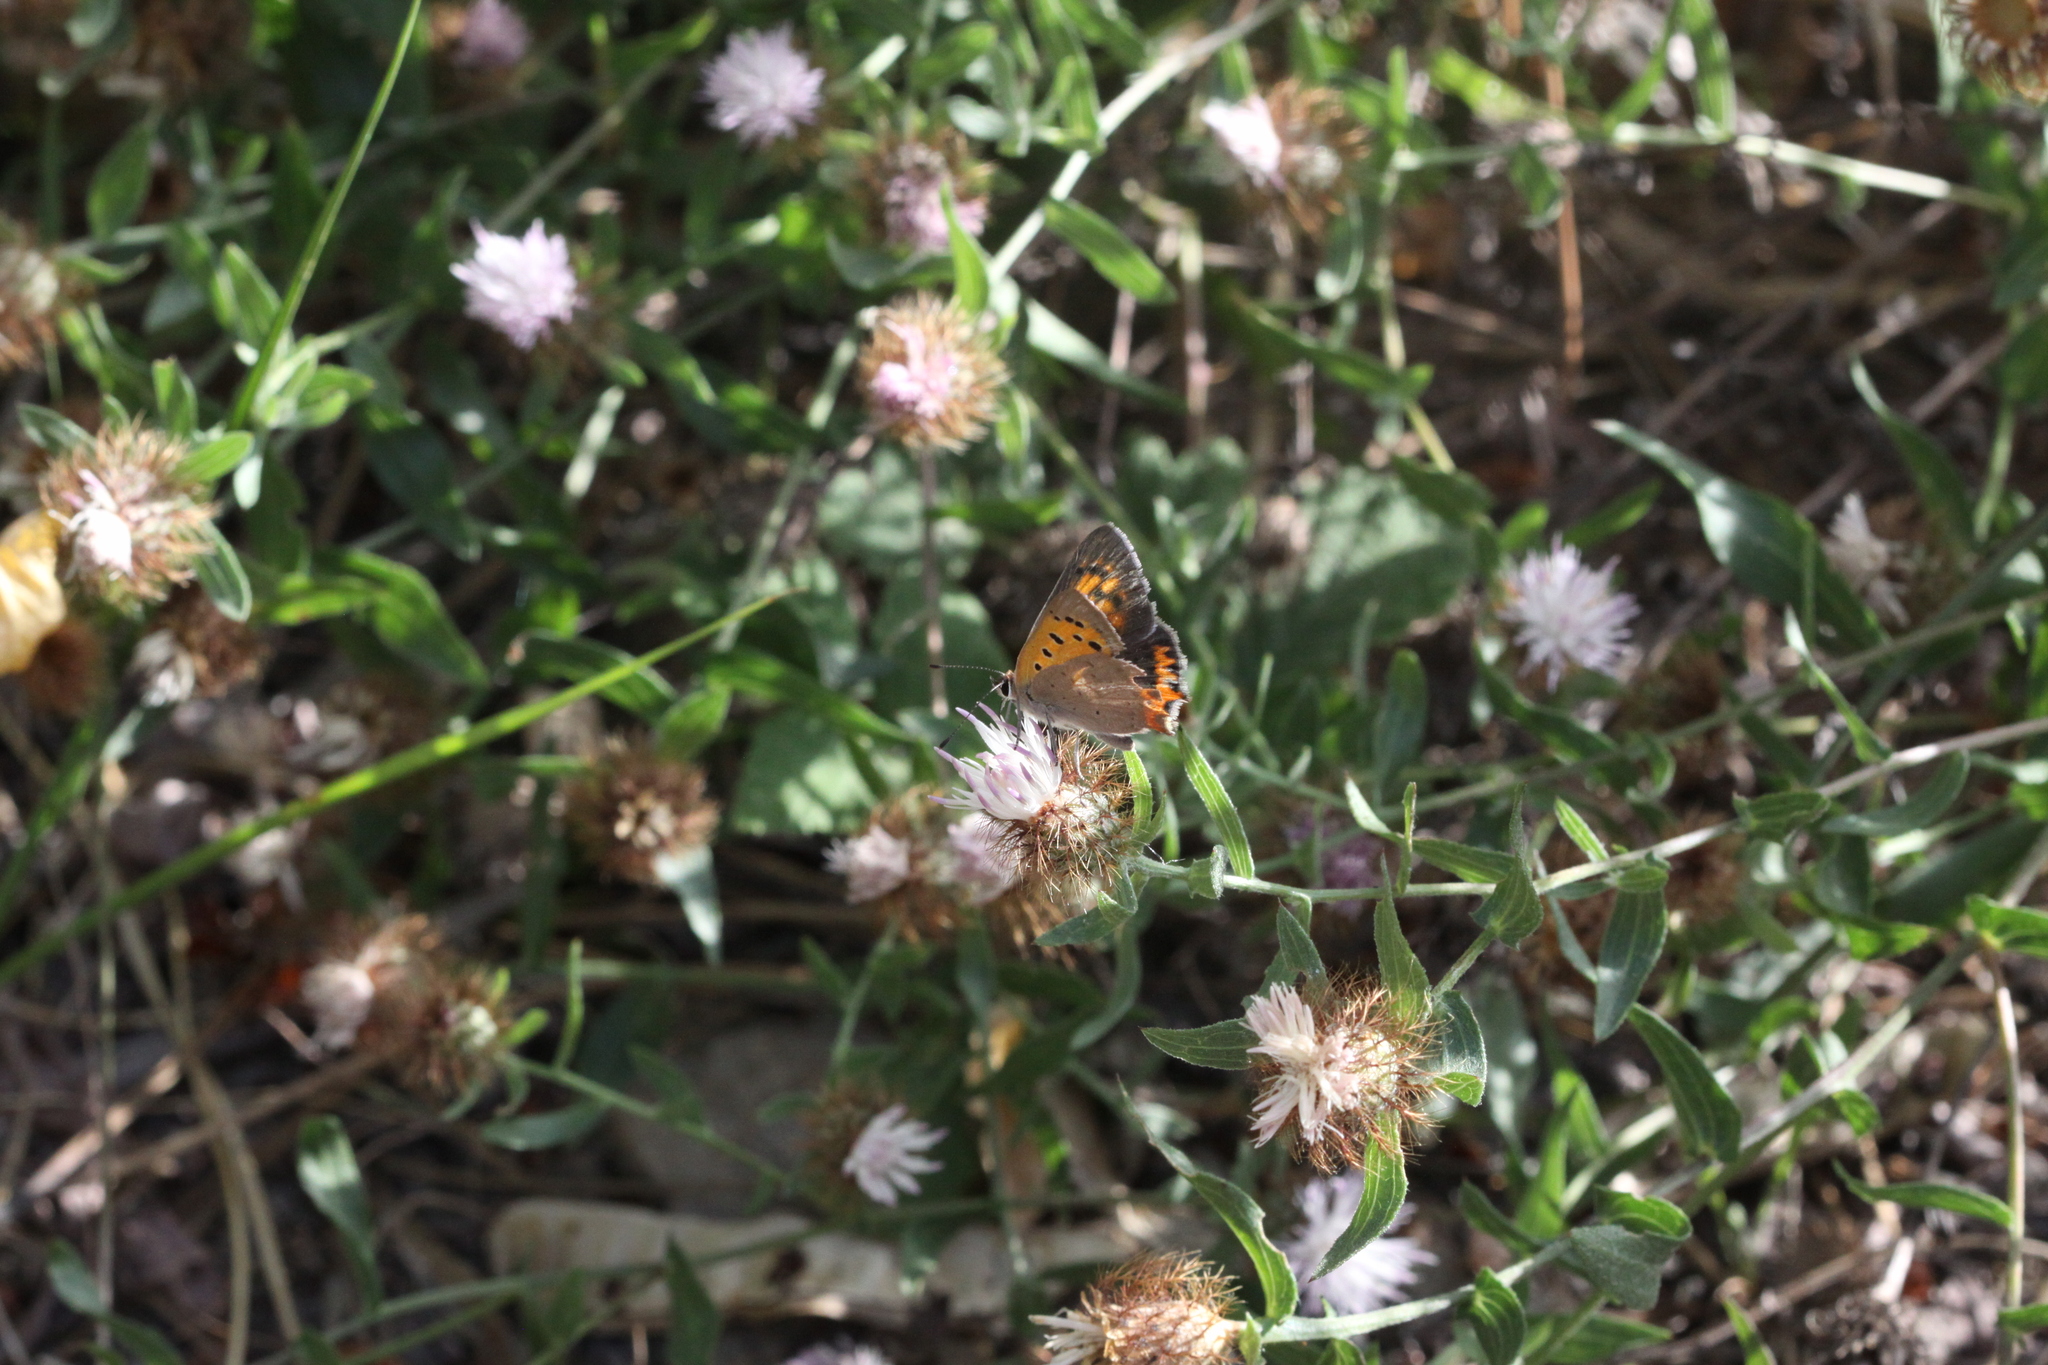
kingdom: Animalia
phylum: Arthropoda
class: Insecta
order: Lepidoptera
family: Lycaenidae
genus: Lycaena
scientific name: Lycaena phlaeas
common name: Small copper
